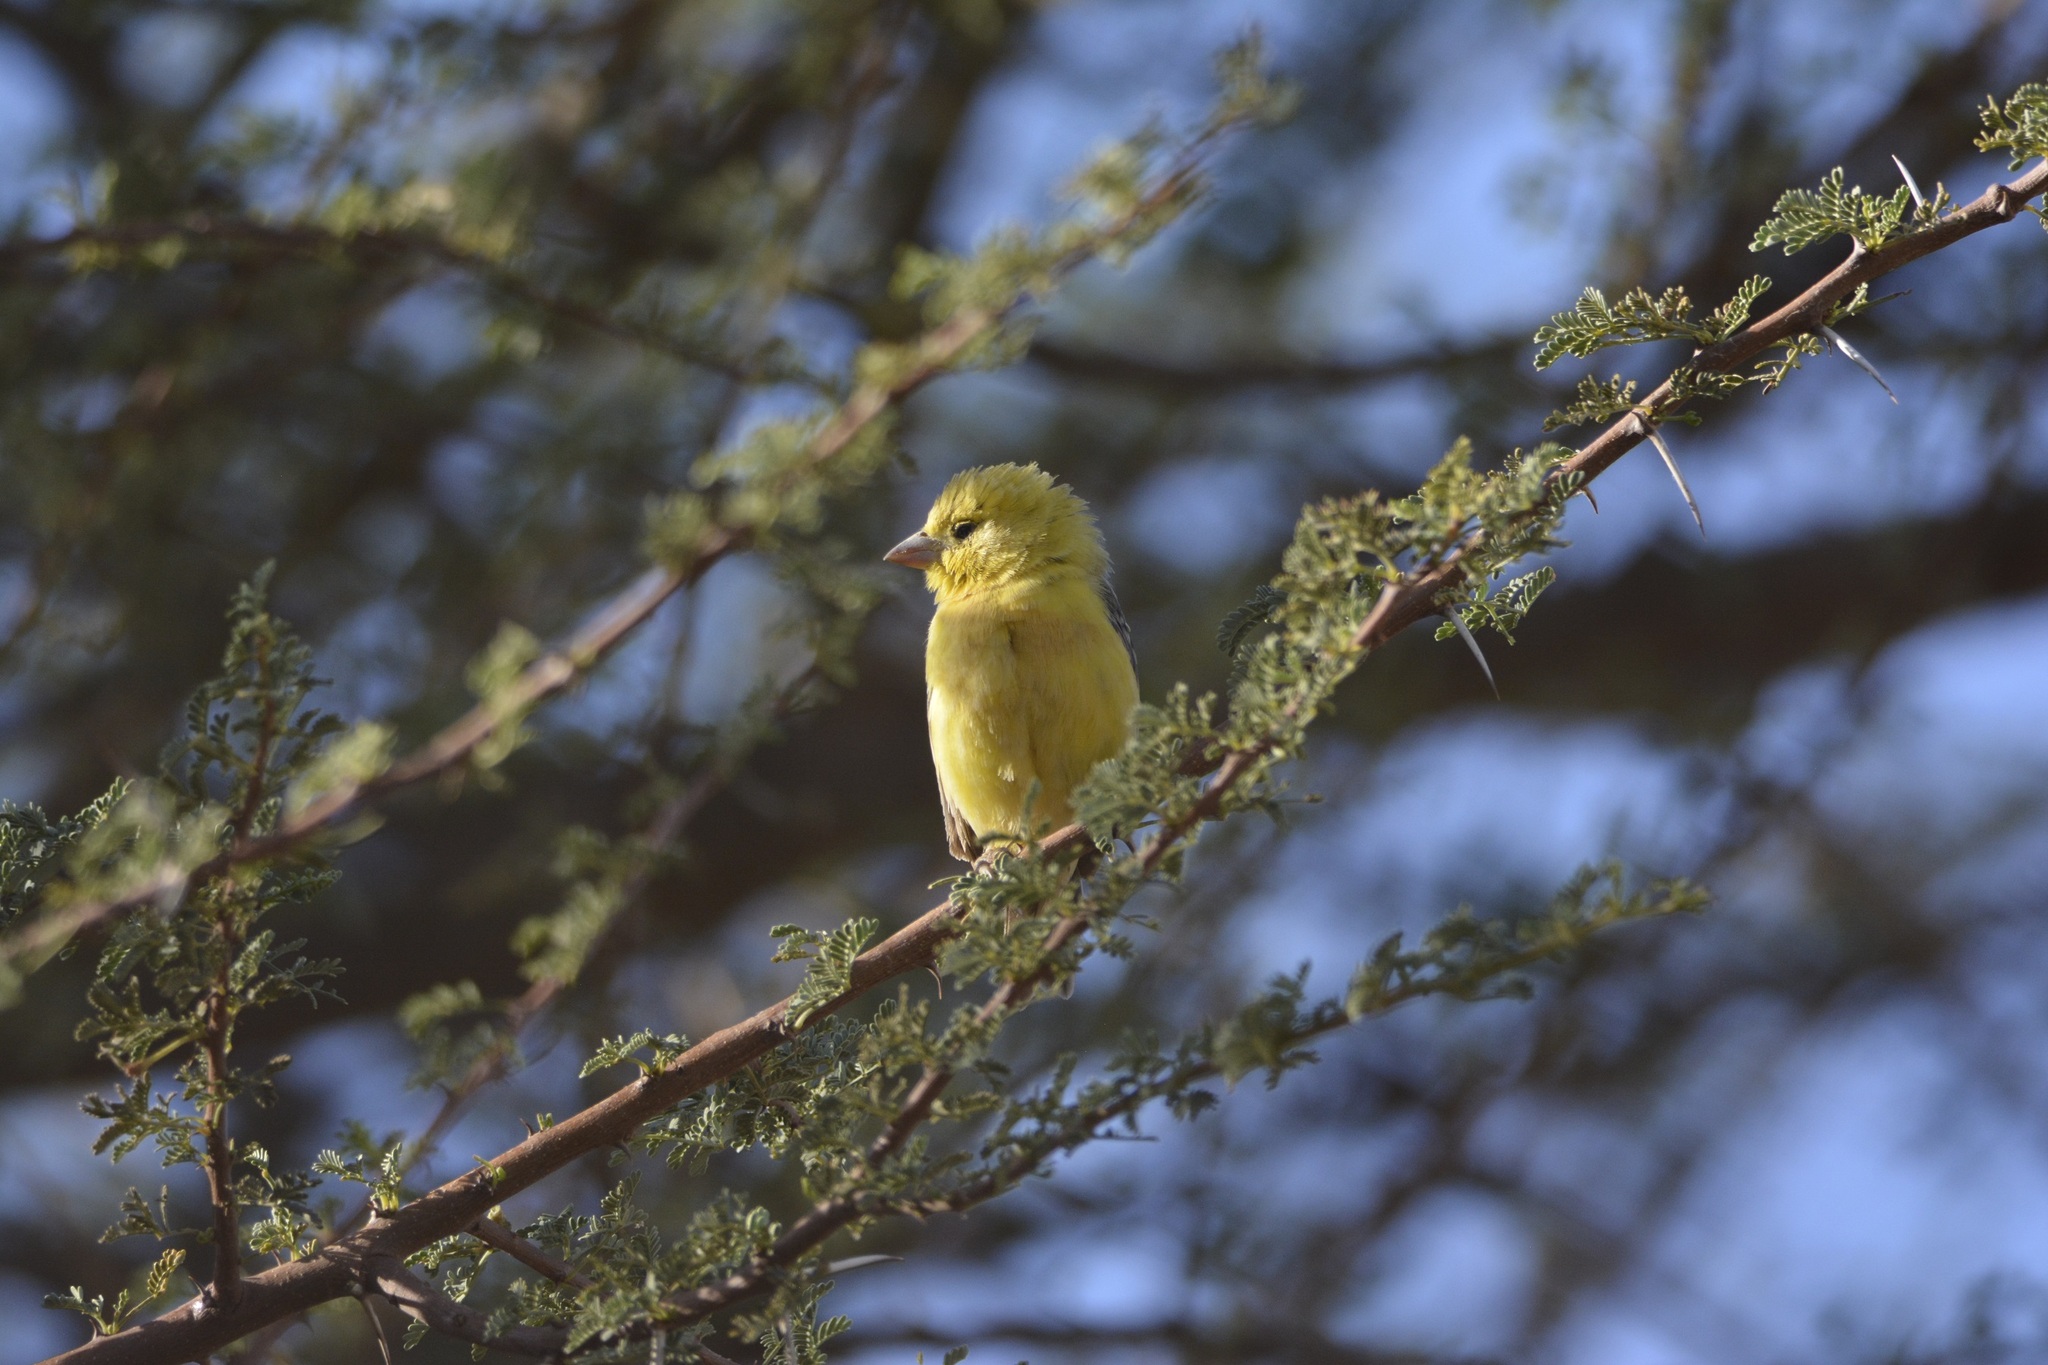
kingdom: Animalia
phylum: Chordata
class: Aves
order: Passeriformes
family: Passeridae
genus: Passer
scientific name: Passer luteus
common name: Sudan golden sparrow
